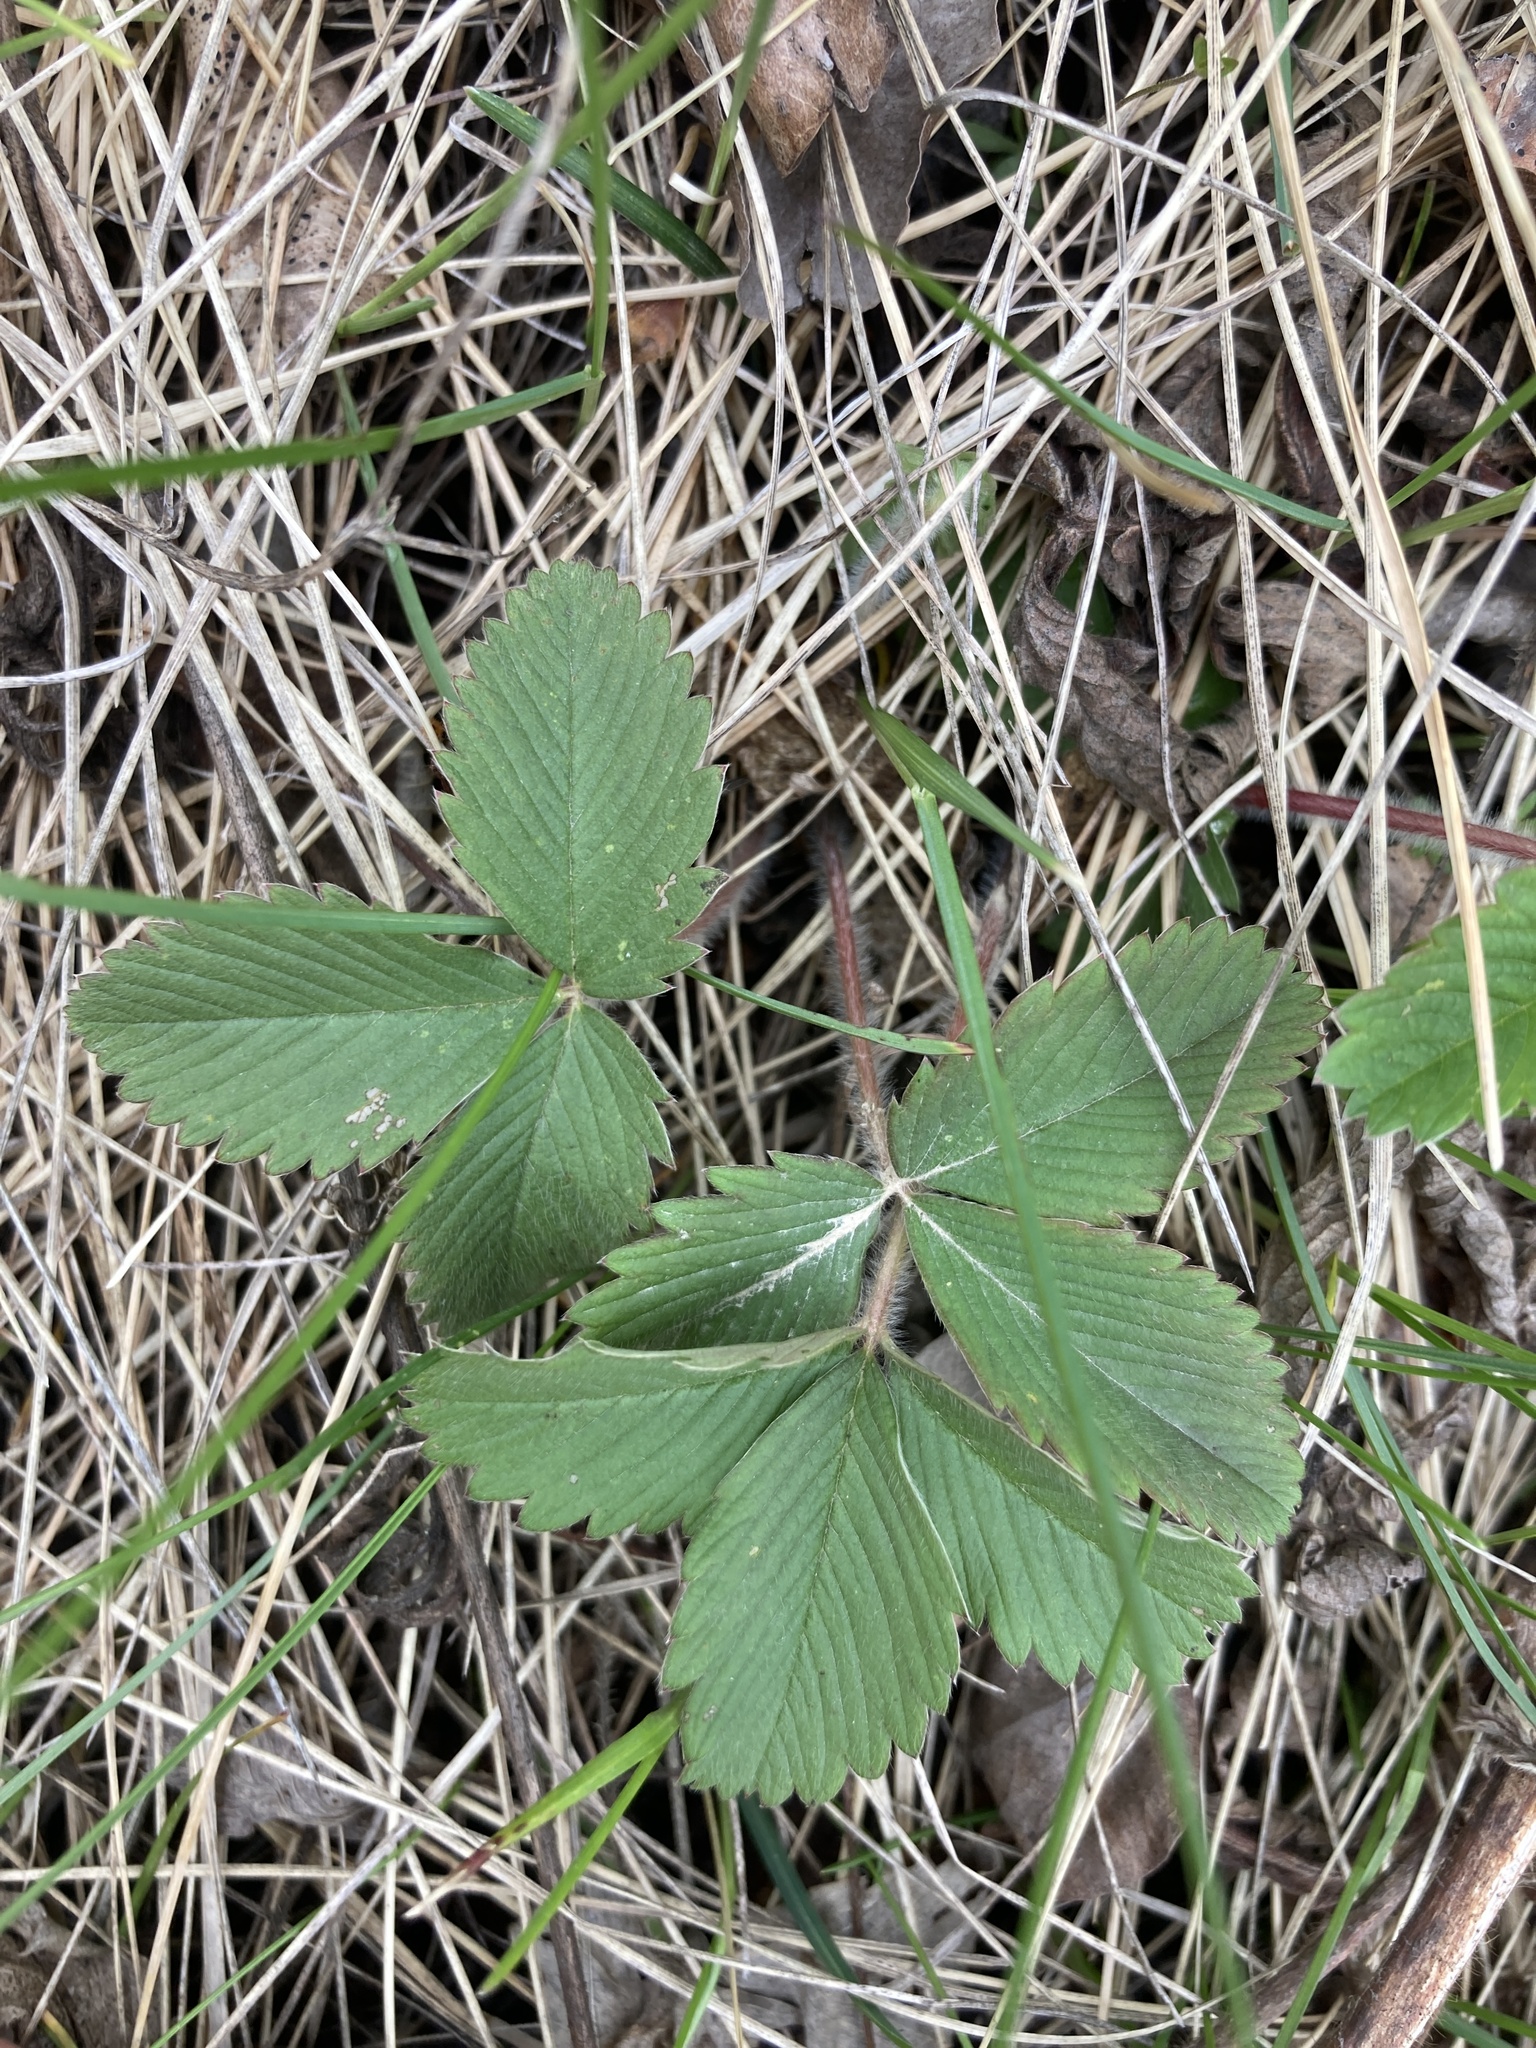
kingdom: Plantae
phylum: Tracheophyta
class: Magnoliopsida
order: Rosales
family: Rosaceae
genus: Fragaria
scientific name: Fragaria viridis
